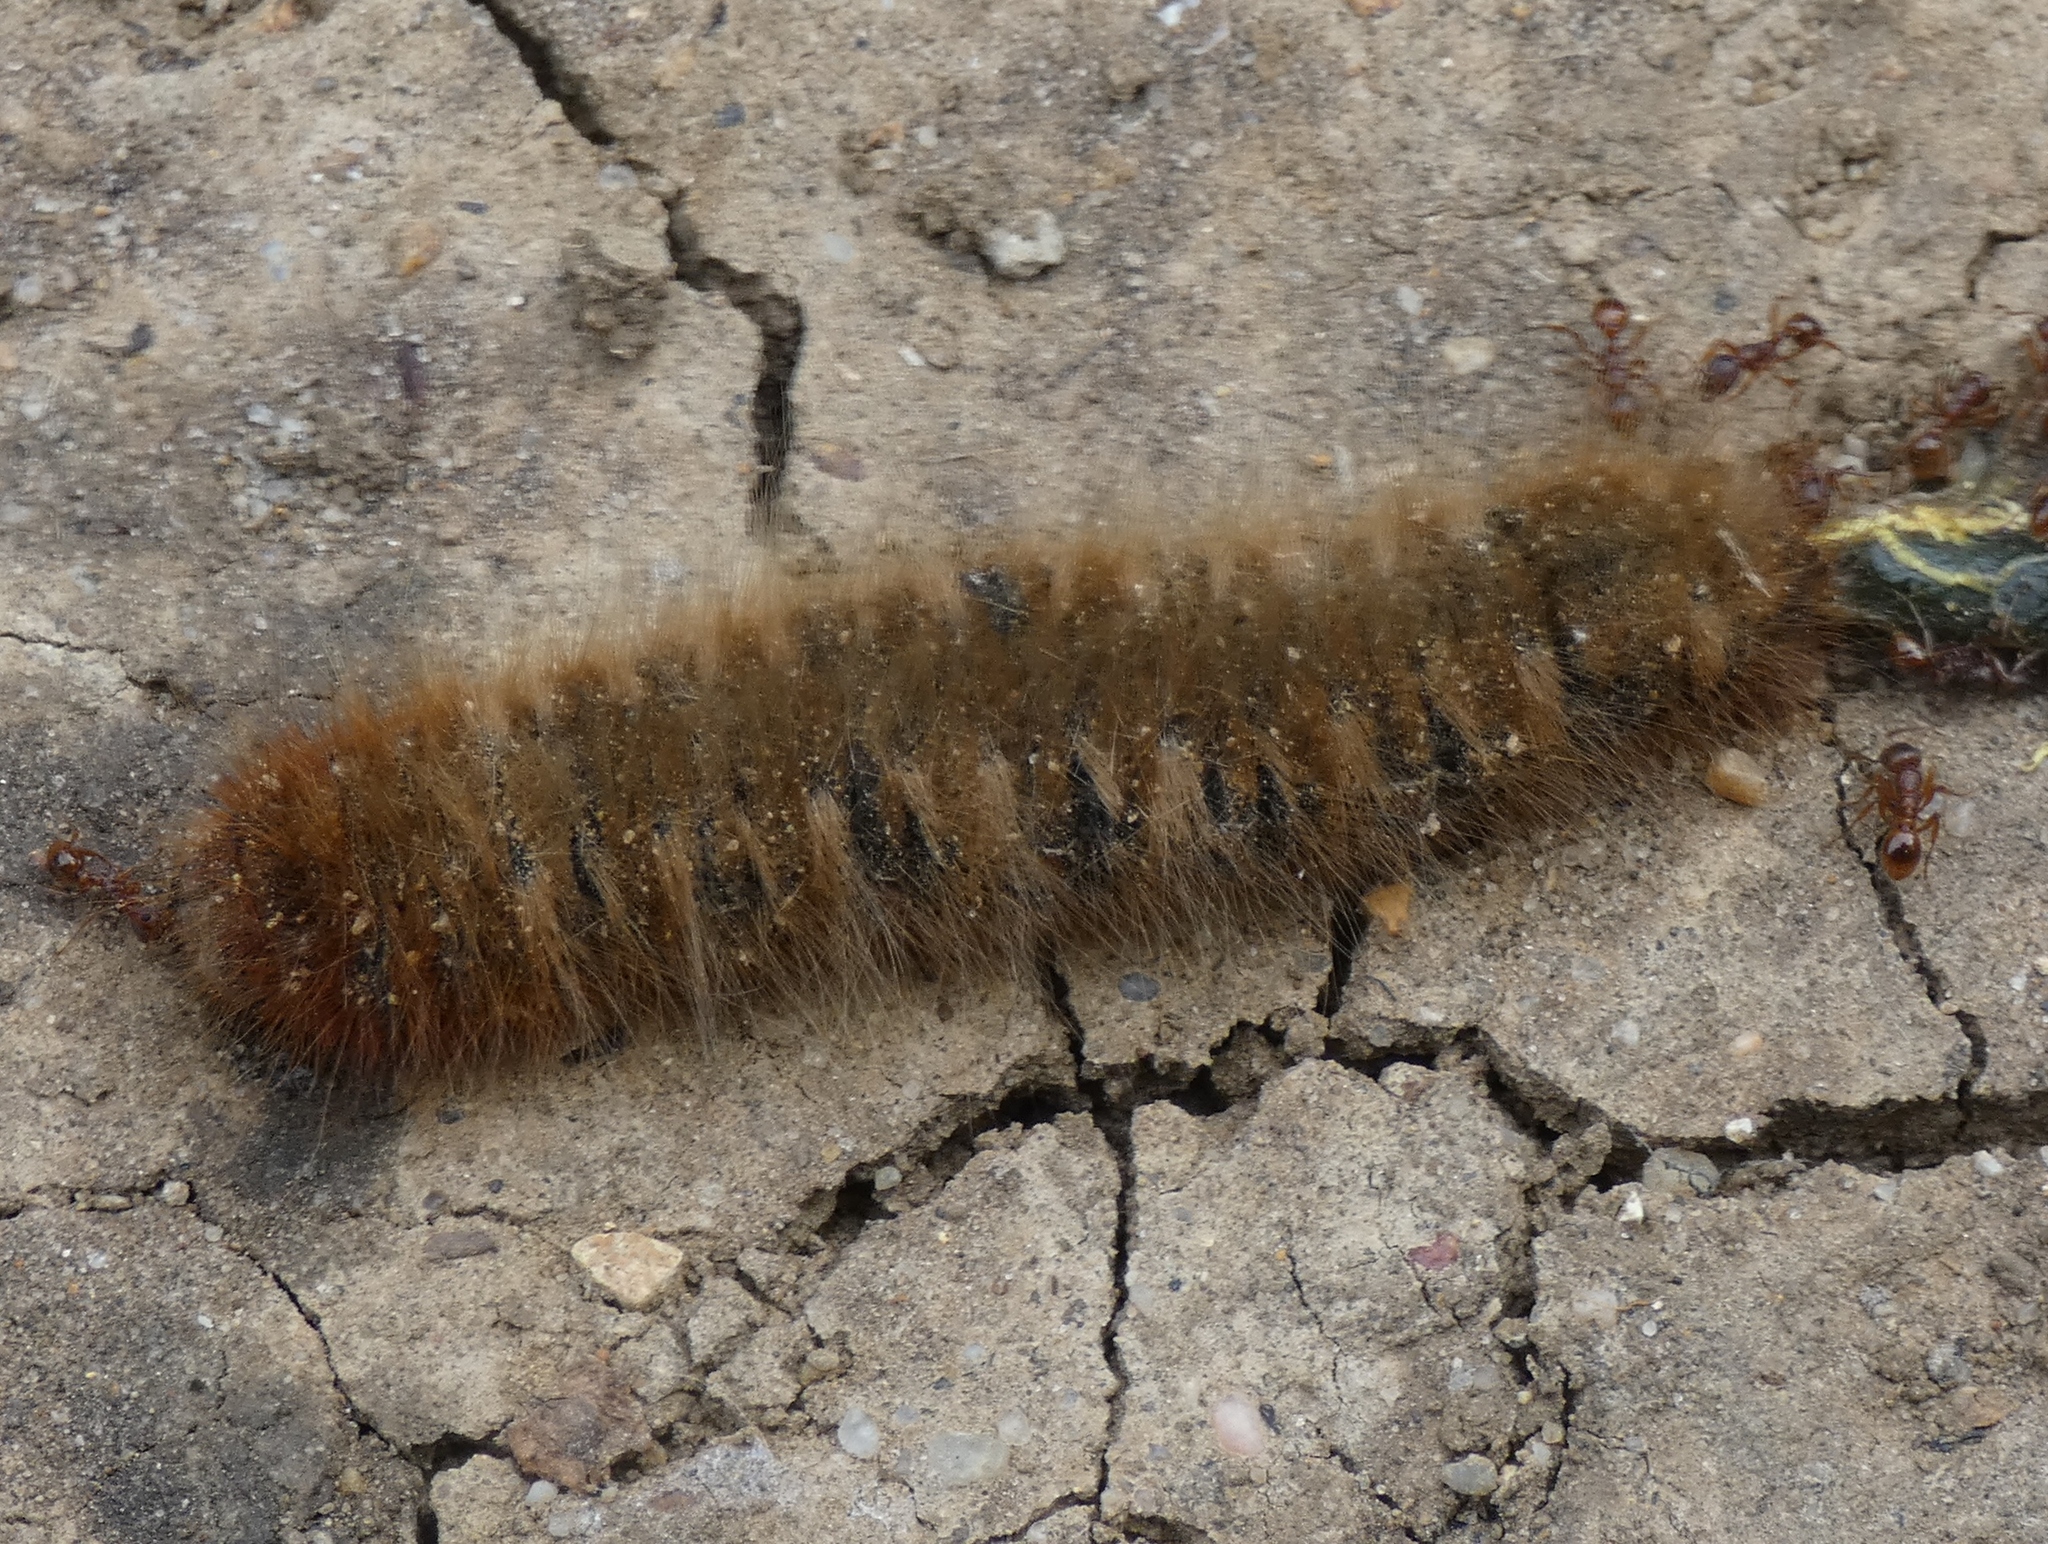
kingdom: Animalia
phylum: Arthropoda
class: Insecta
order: Lepidoptera
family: Lasiocampidae
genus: Lasiocampa
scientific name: Lasiocampa quercus
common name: Oak eggar
